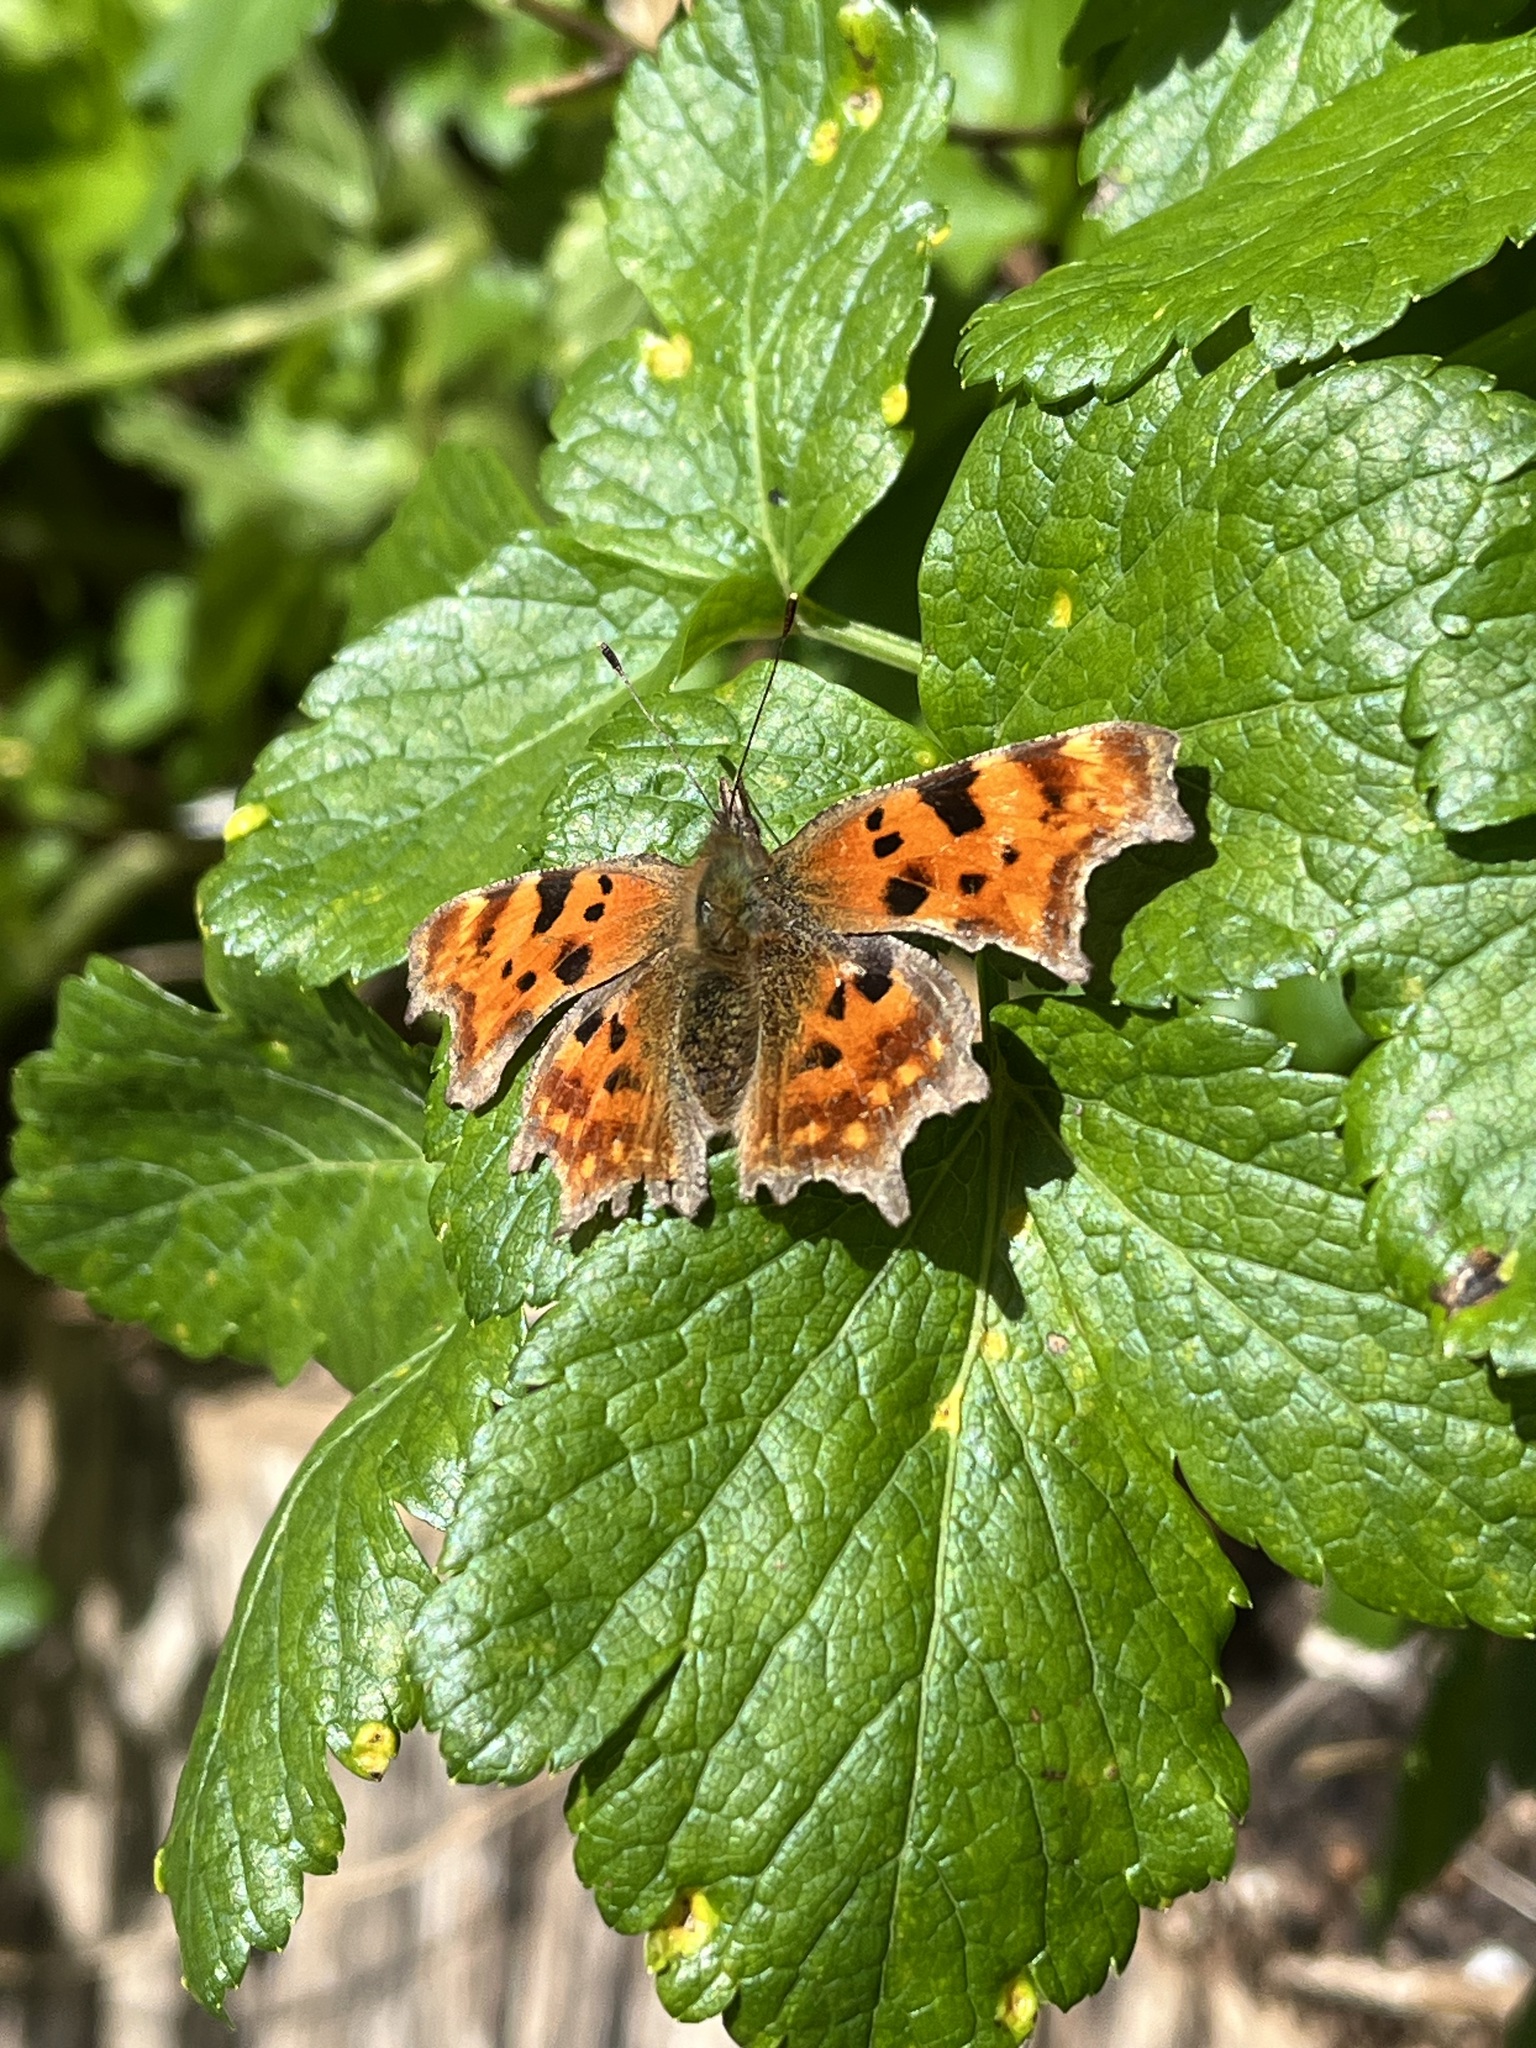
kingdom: Animalia
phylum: Arthropoda
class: Insecta
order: Lepidoptera
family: Nymphalidae
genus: Polygonia
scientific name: Polygonia c-album
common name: Comma
